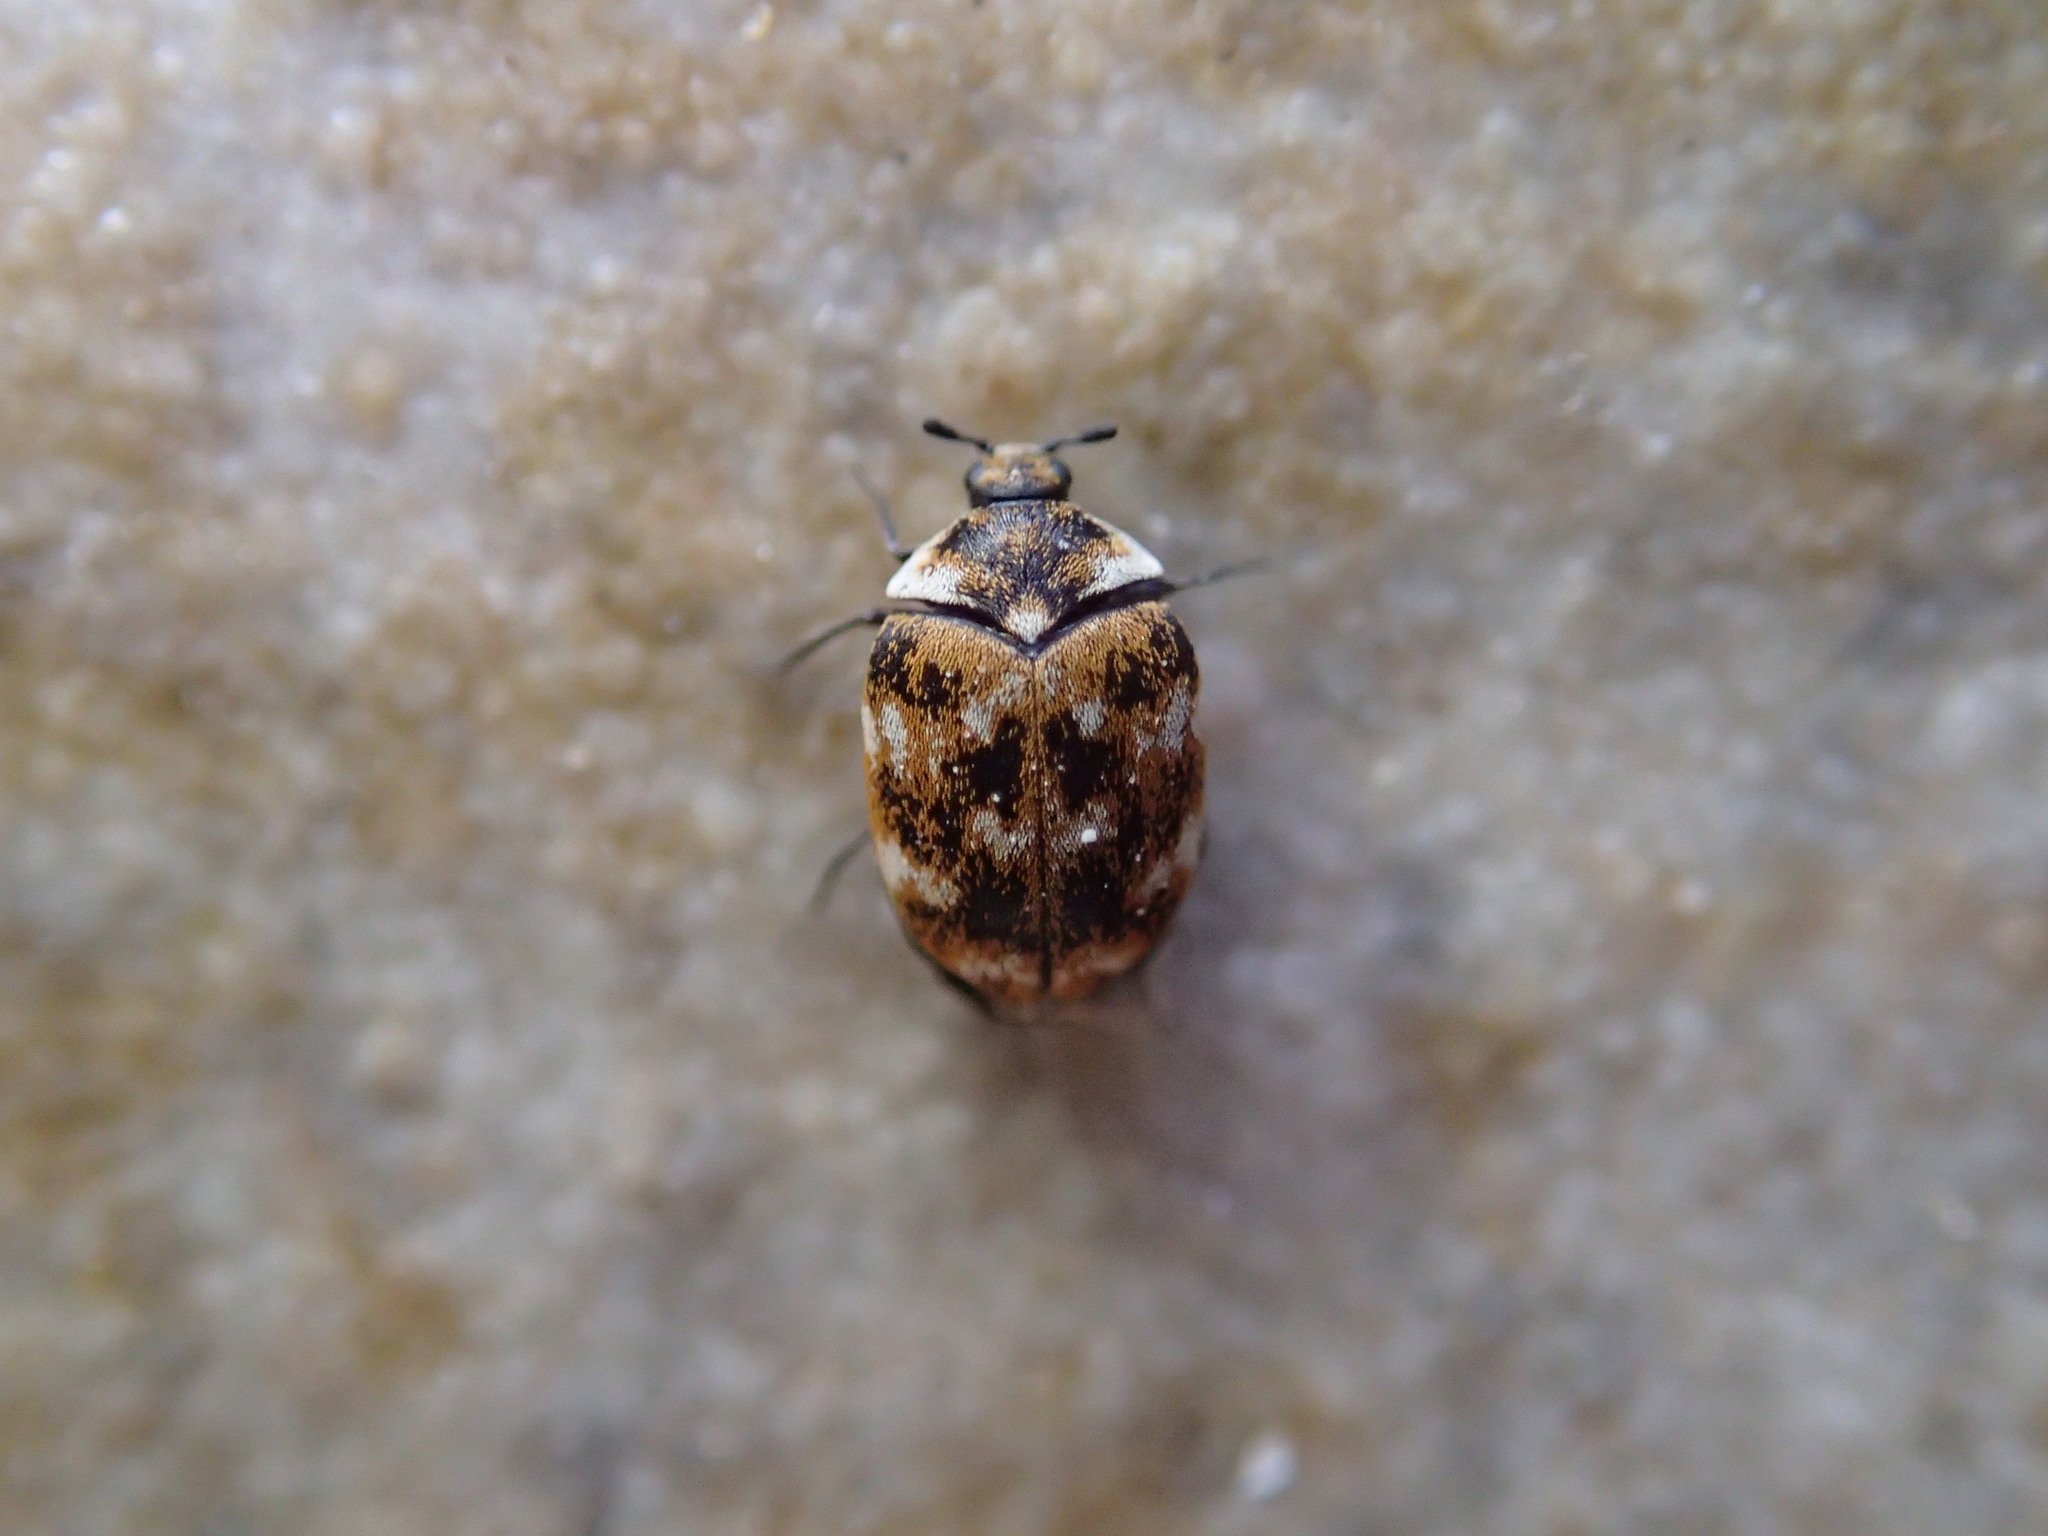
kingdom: Animalia
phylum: Arthropoda
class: Insecta
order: Coleoptera
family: Dermestidae
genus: Anthrenus
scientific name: Anthrenus verbasci
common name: Varied carpet beetle
